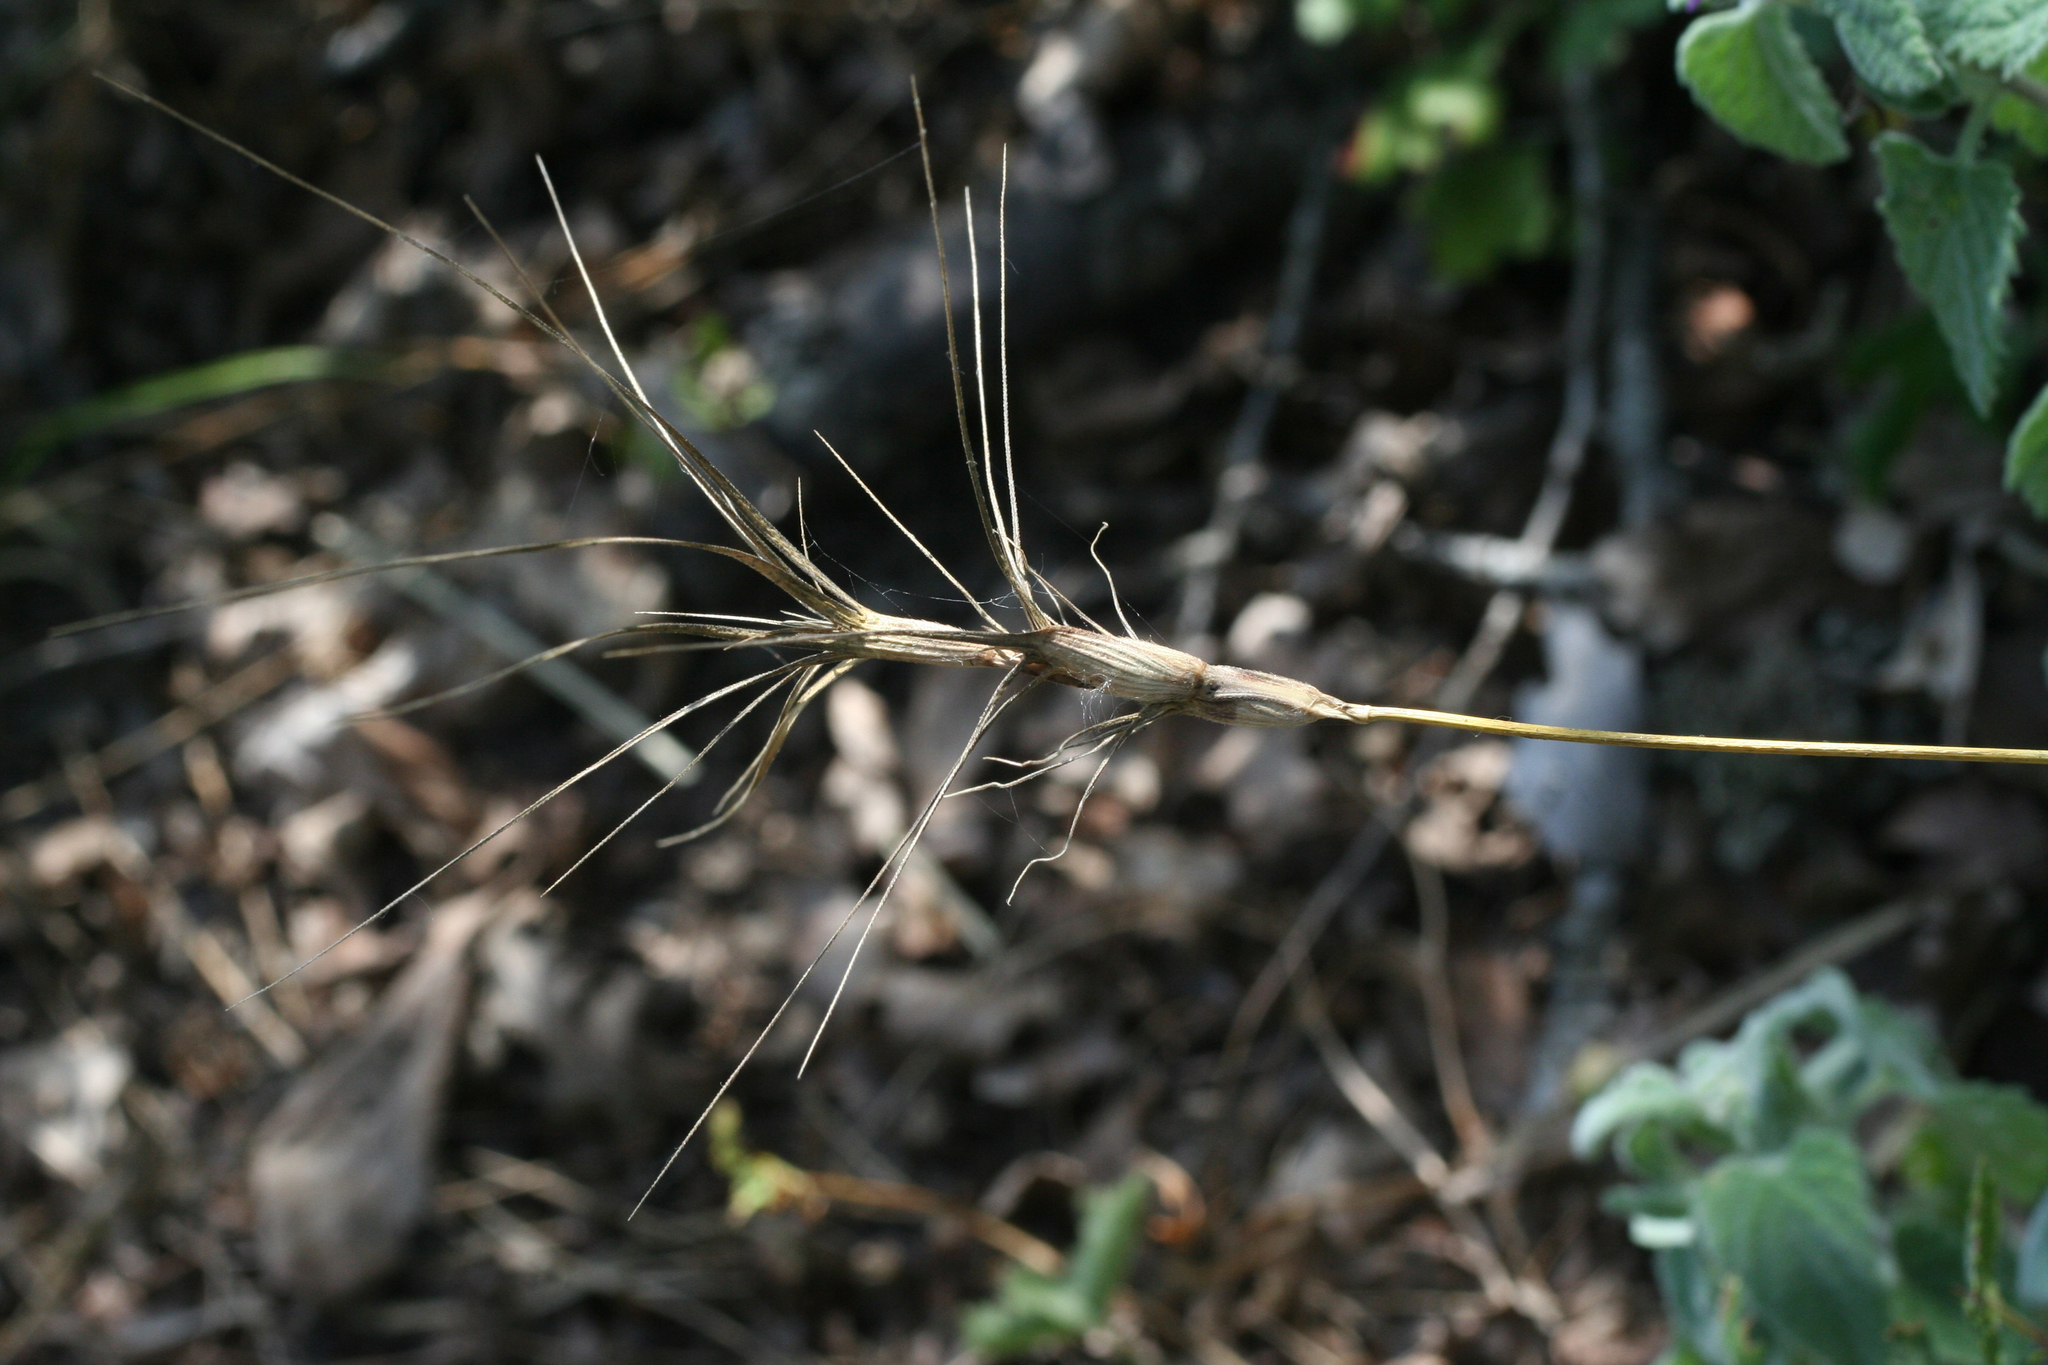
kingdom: Plantae
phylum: Tracheophyta
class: Liliopsida
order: Poales
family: Poaceae
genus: Aegilops
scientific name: Aegilops triuncialis
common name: Barb goat grass
